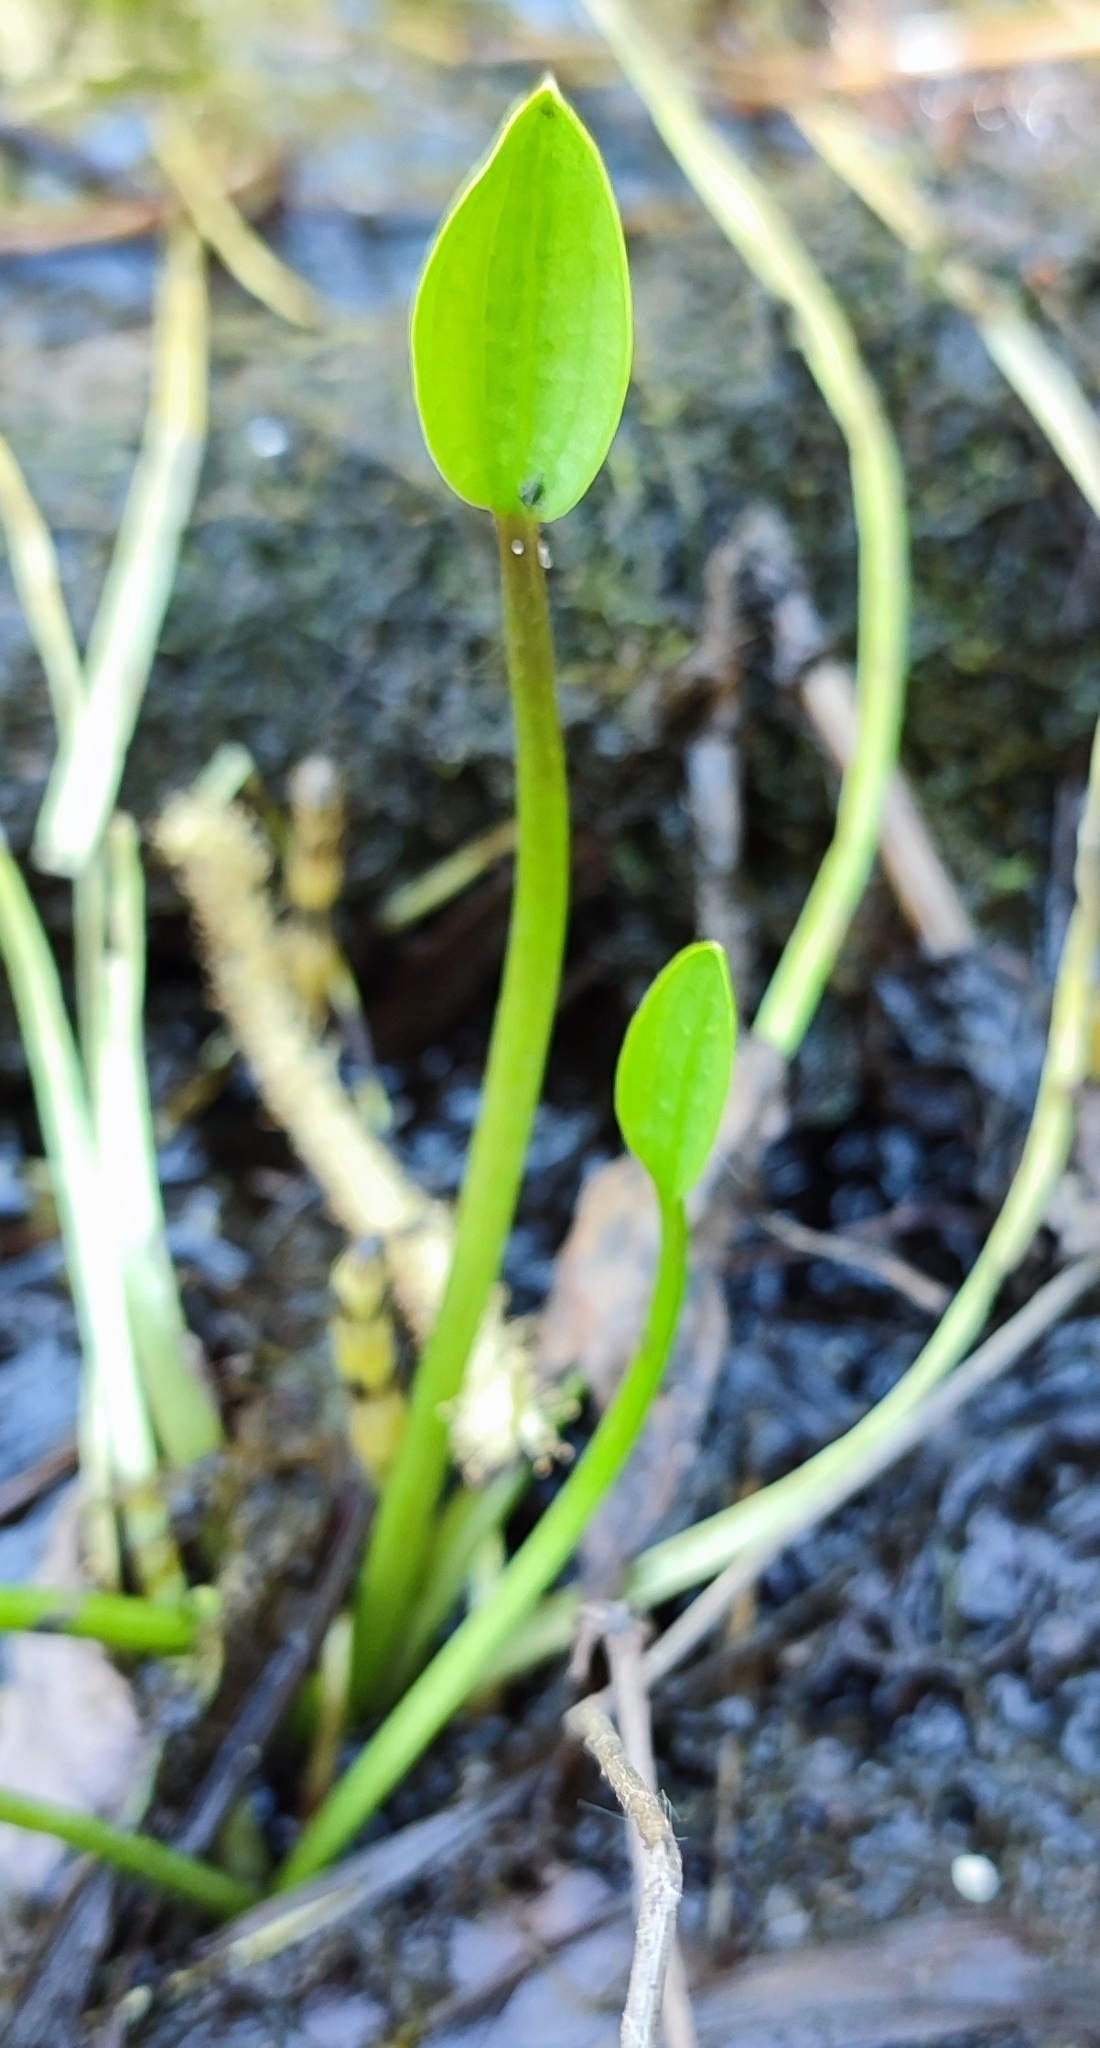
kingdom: Plantae
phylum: Tracheophyta
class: Liliopsida
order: Alismatales
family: Alismataceae
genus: Alisma
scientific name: Alisma plantago-aquatica
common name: Water-plantain
